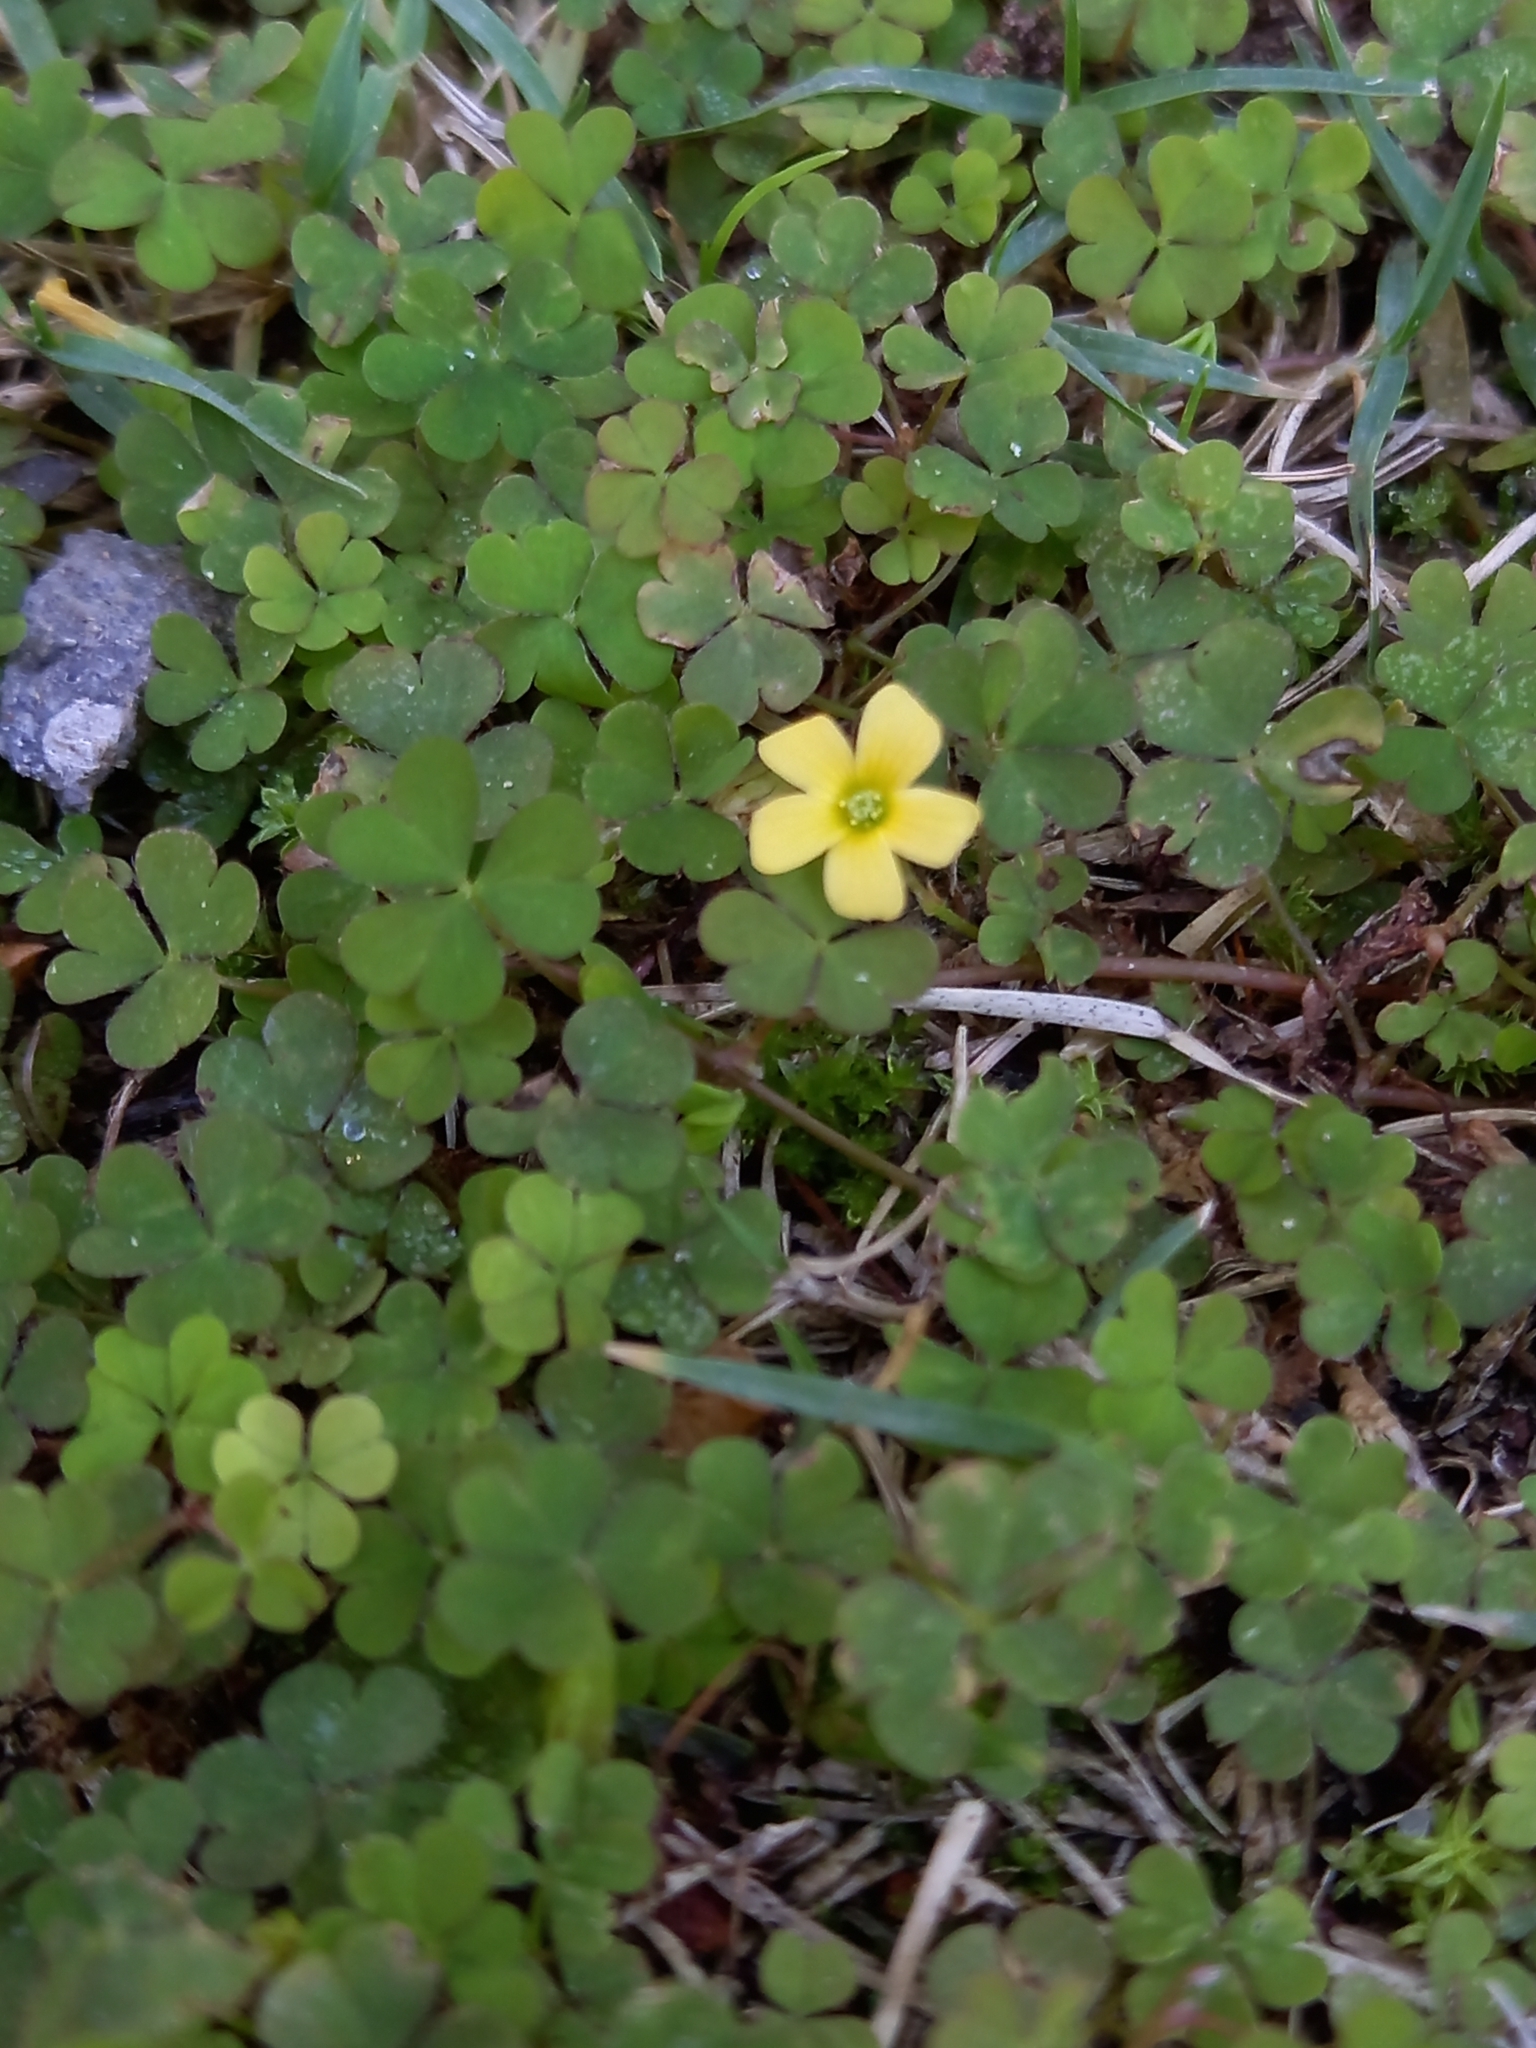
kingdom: Plantae
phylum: Tracheophyta
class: Magnoliopsida
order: Oxalidales
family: Oxalidaceae
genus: Oxalis
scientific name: Oxalis corniculata
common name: Procumbent yellow-sorrel
